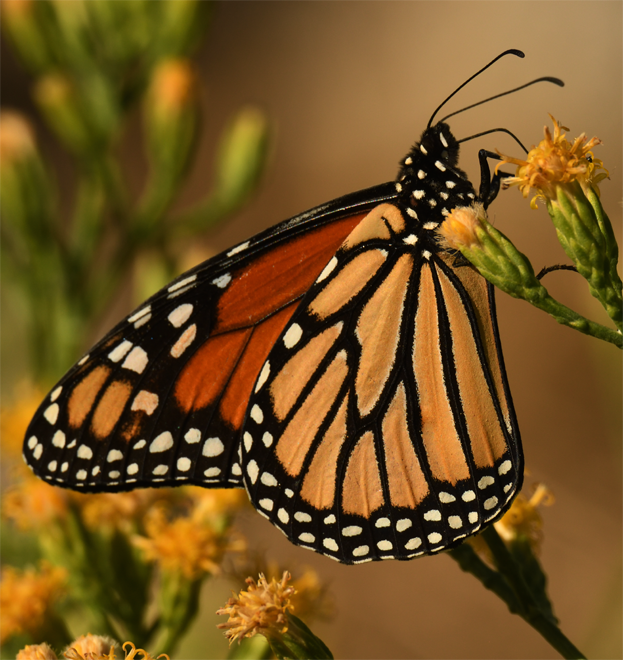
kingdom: Animalia
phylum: Arthropoda
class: Insecta
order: Lepidoptera
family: Nymphalidae
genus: Danaus
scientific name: Danaus plexippus
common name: Monarch
